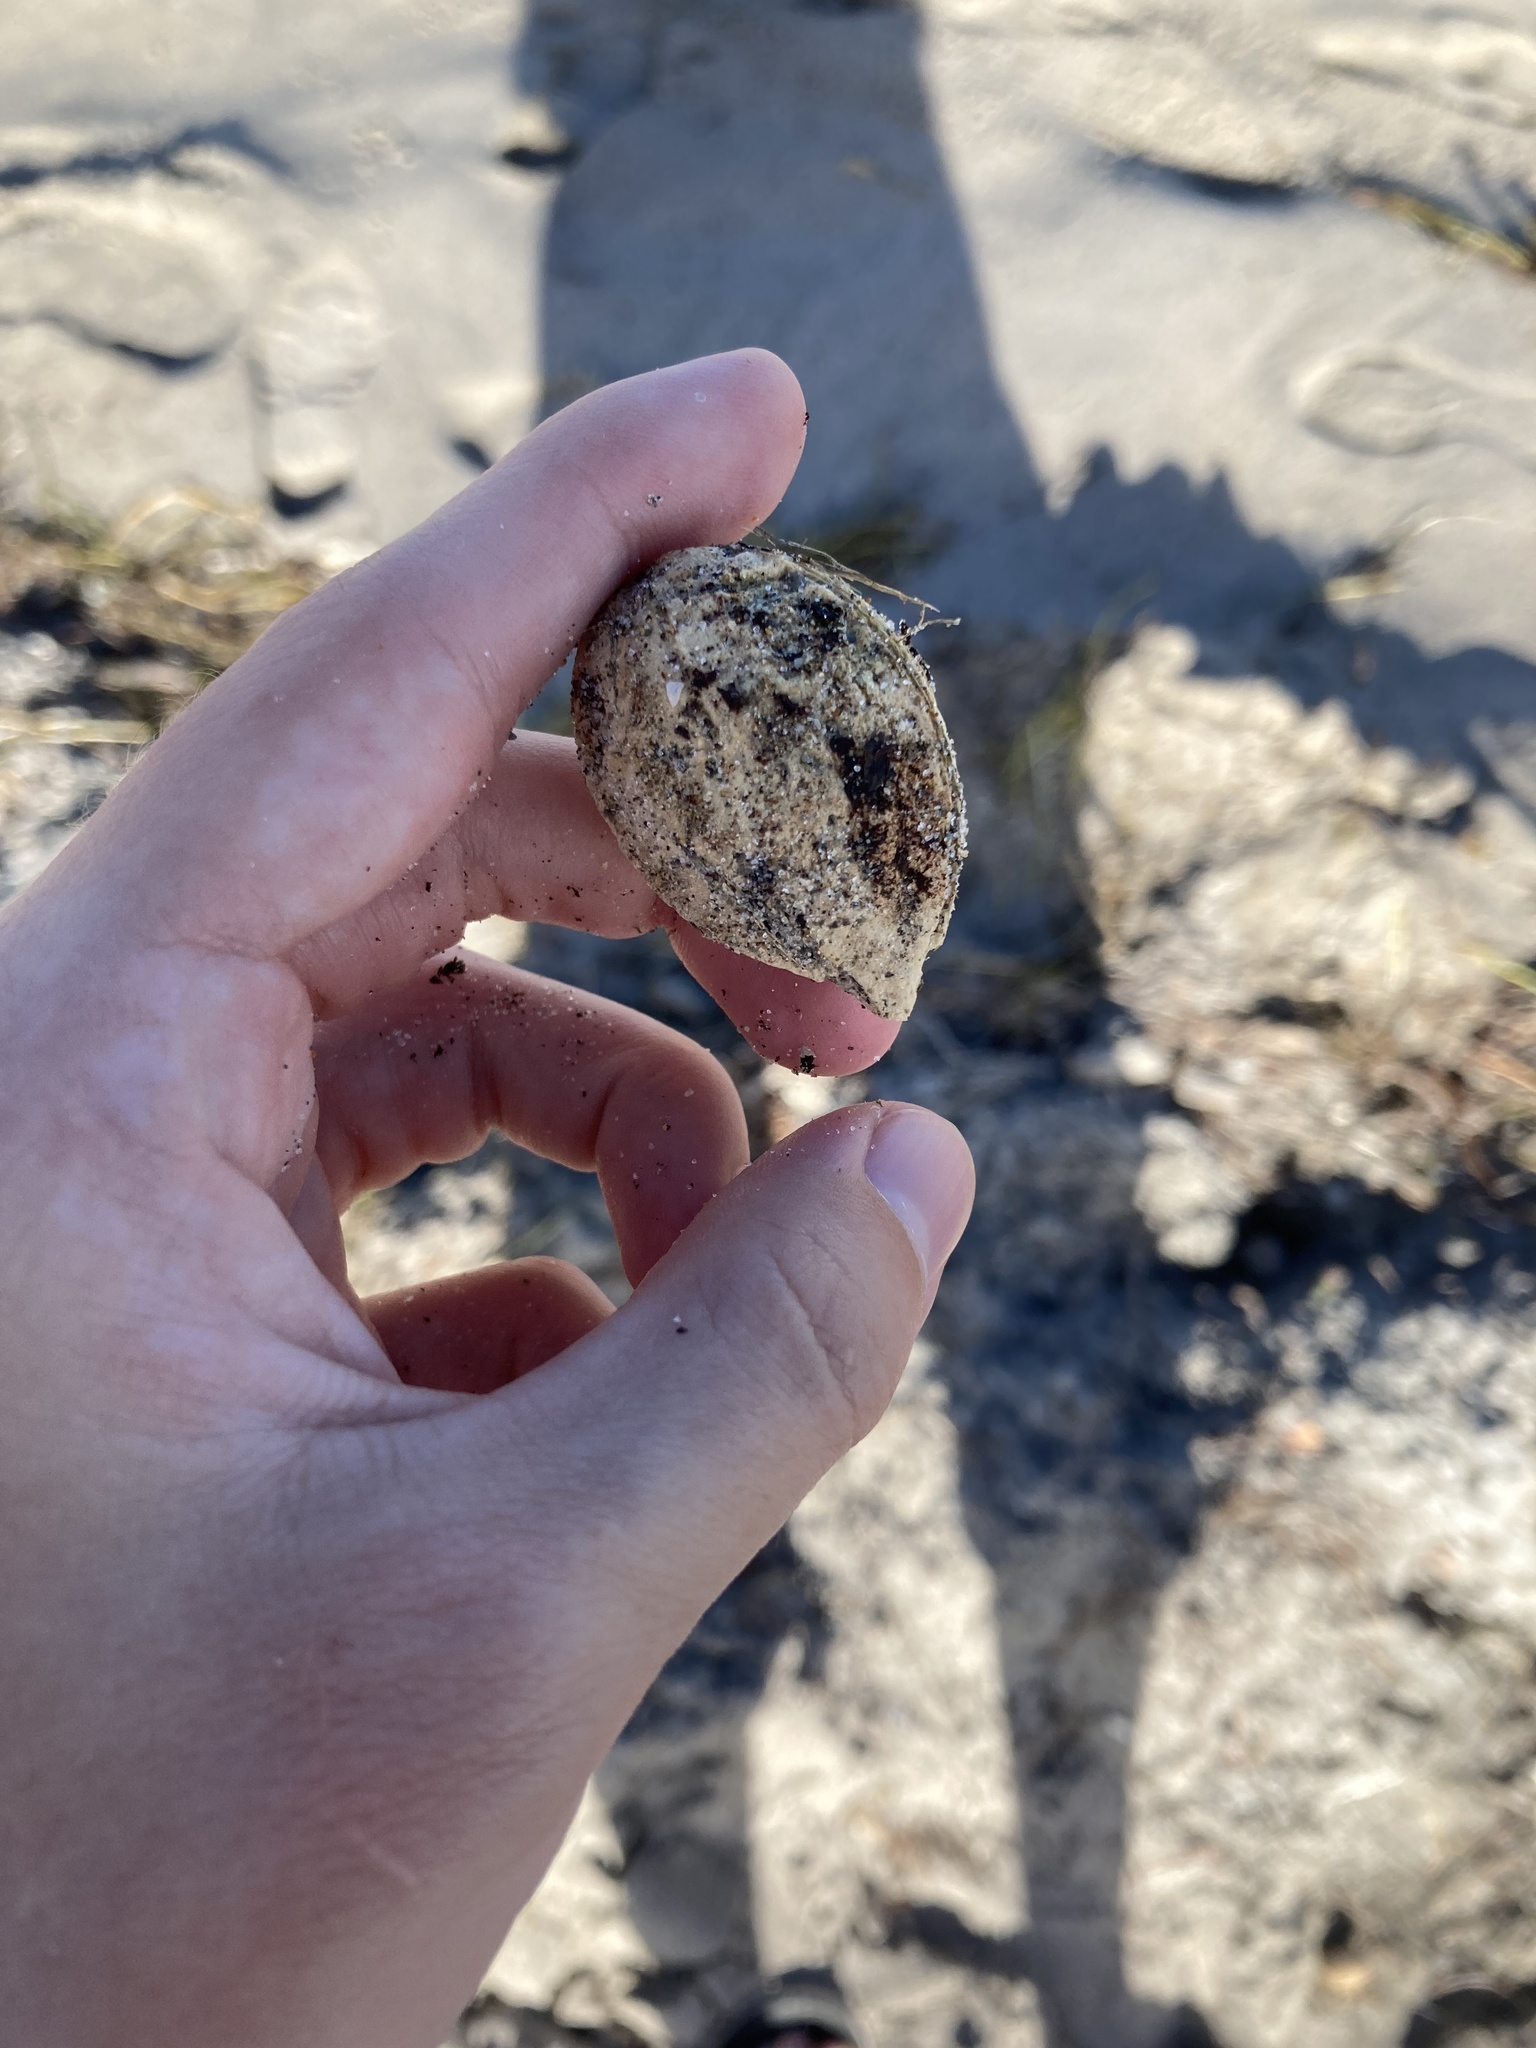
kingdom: Plantae
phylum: Tracheophyta
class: Magnoliopsida
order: Myrtales
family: Combretaceae
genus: Terminalia
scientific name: Terminalia catappa
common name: Tropical almond
